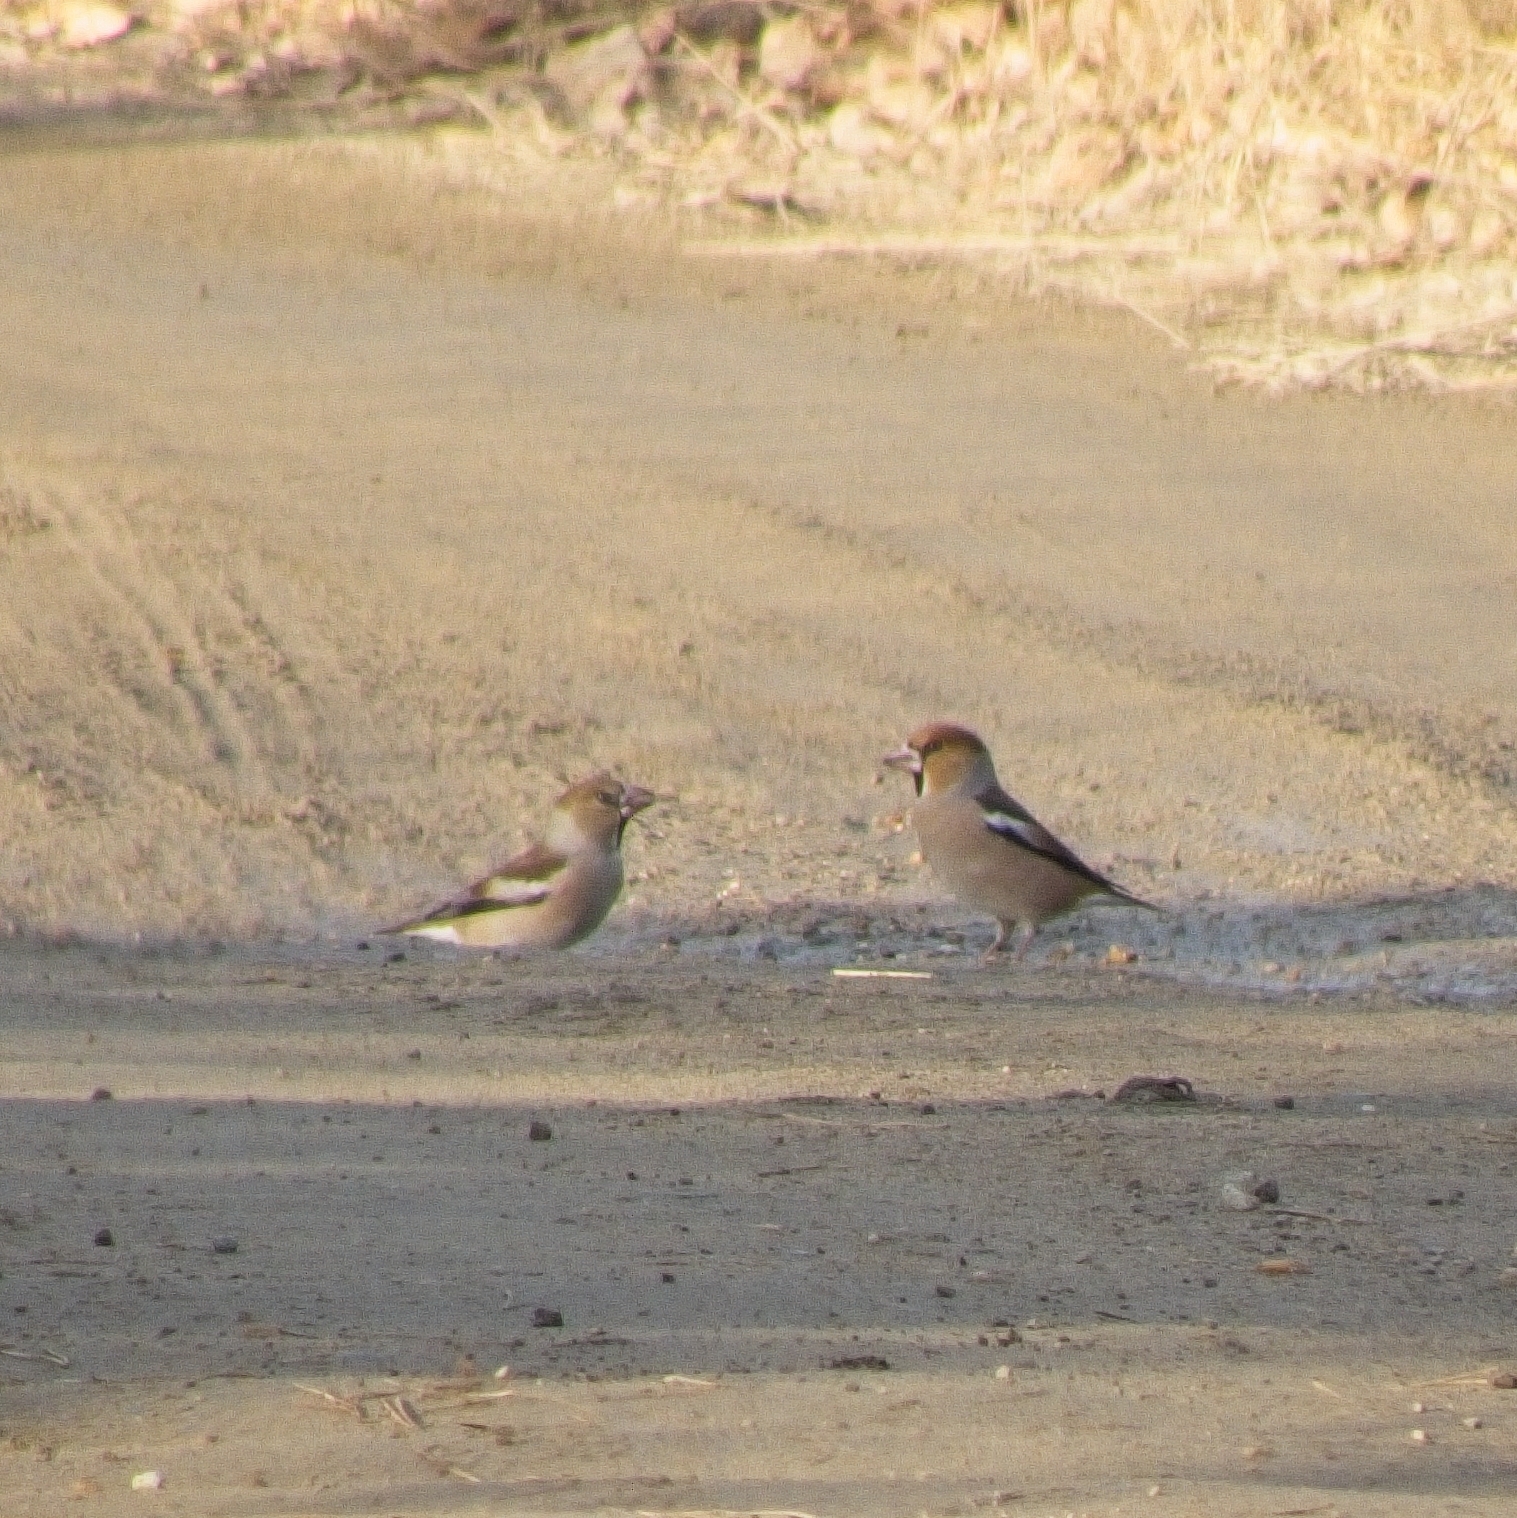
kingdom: Animalia
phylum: Chordata
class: Aves
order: Passeriformes
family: Fringillidae
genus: Coccothraustes
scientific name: Coccothraustes coccothraustes
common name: Hawfinch
